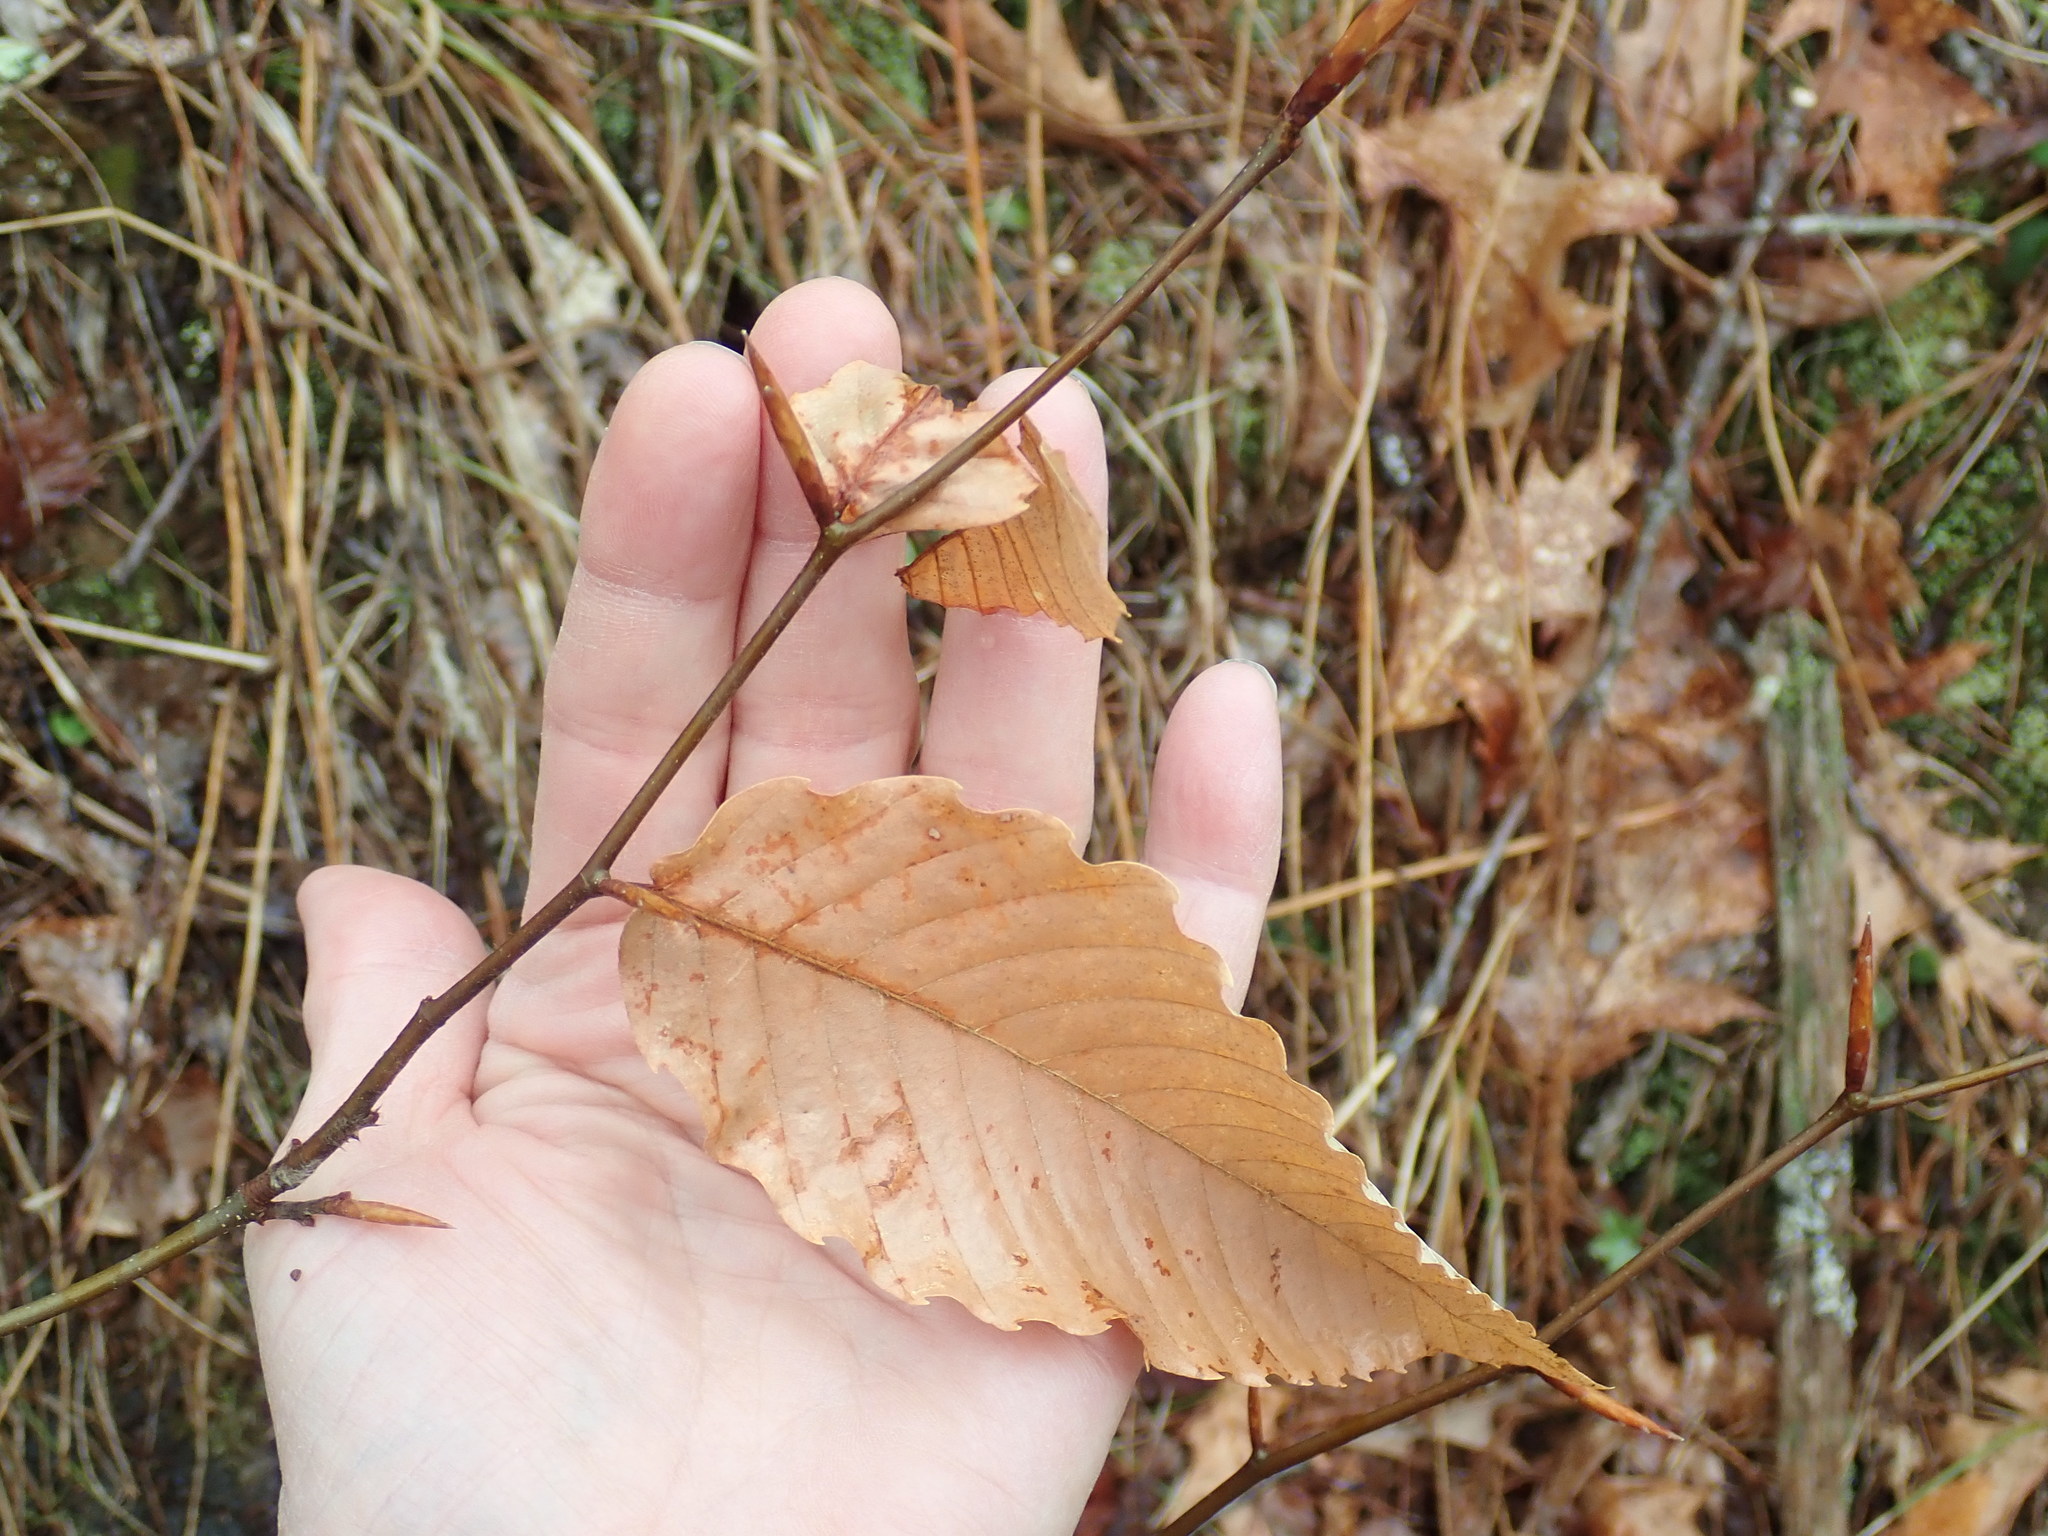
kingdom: Plantae
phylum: Tracheophyta
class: Magnoliopsida
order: Fagales
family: Fagaceae
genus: Fagus
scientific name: Fagus grandifolia
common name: American beech
